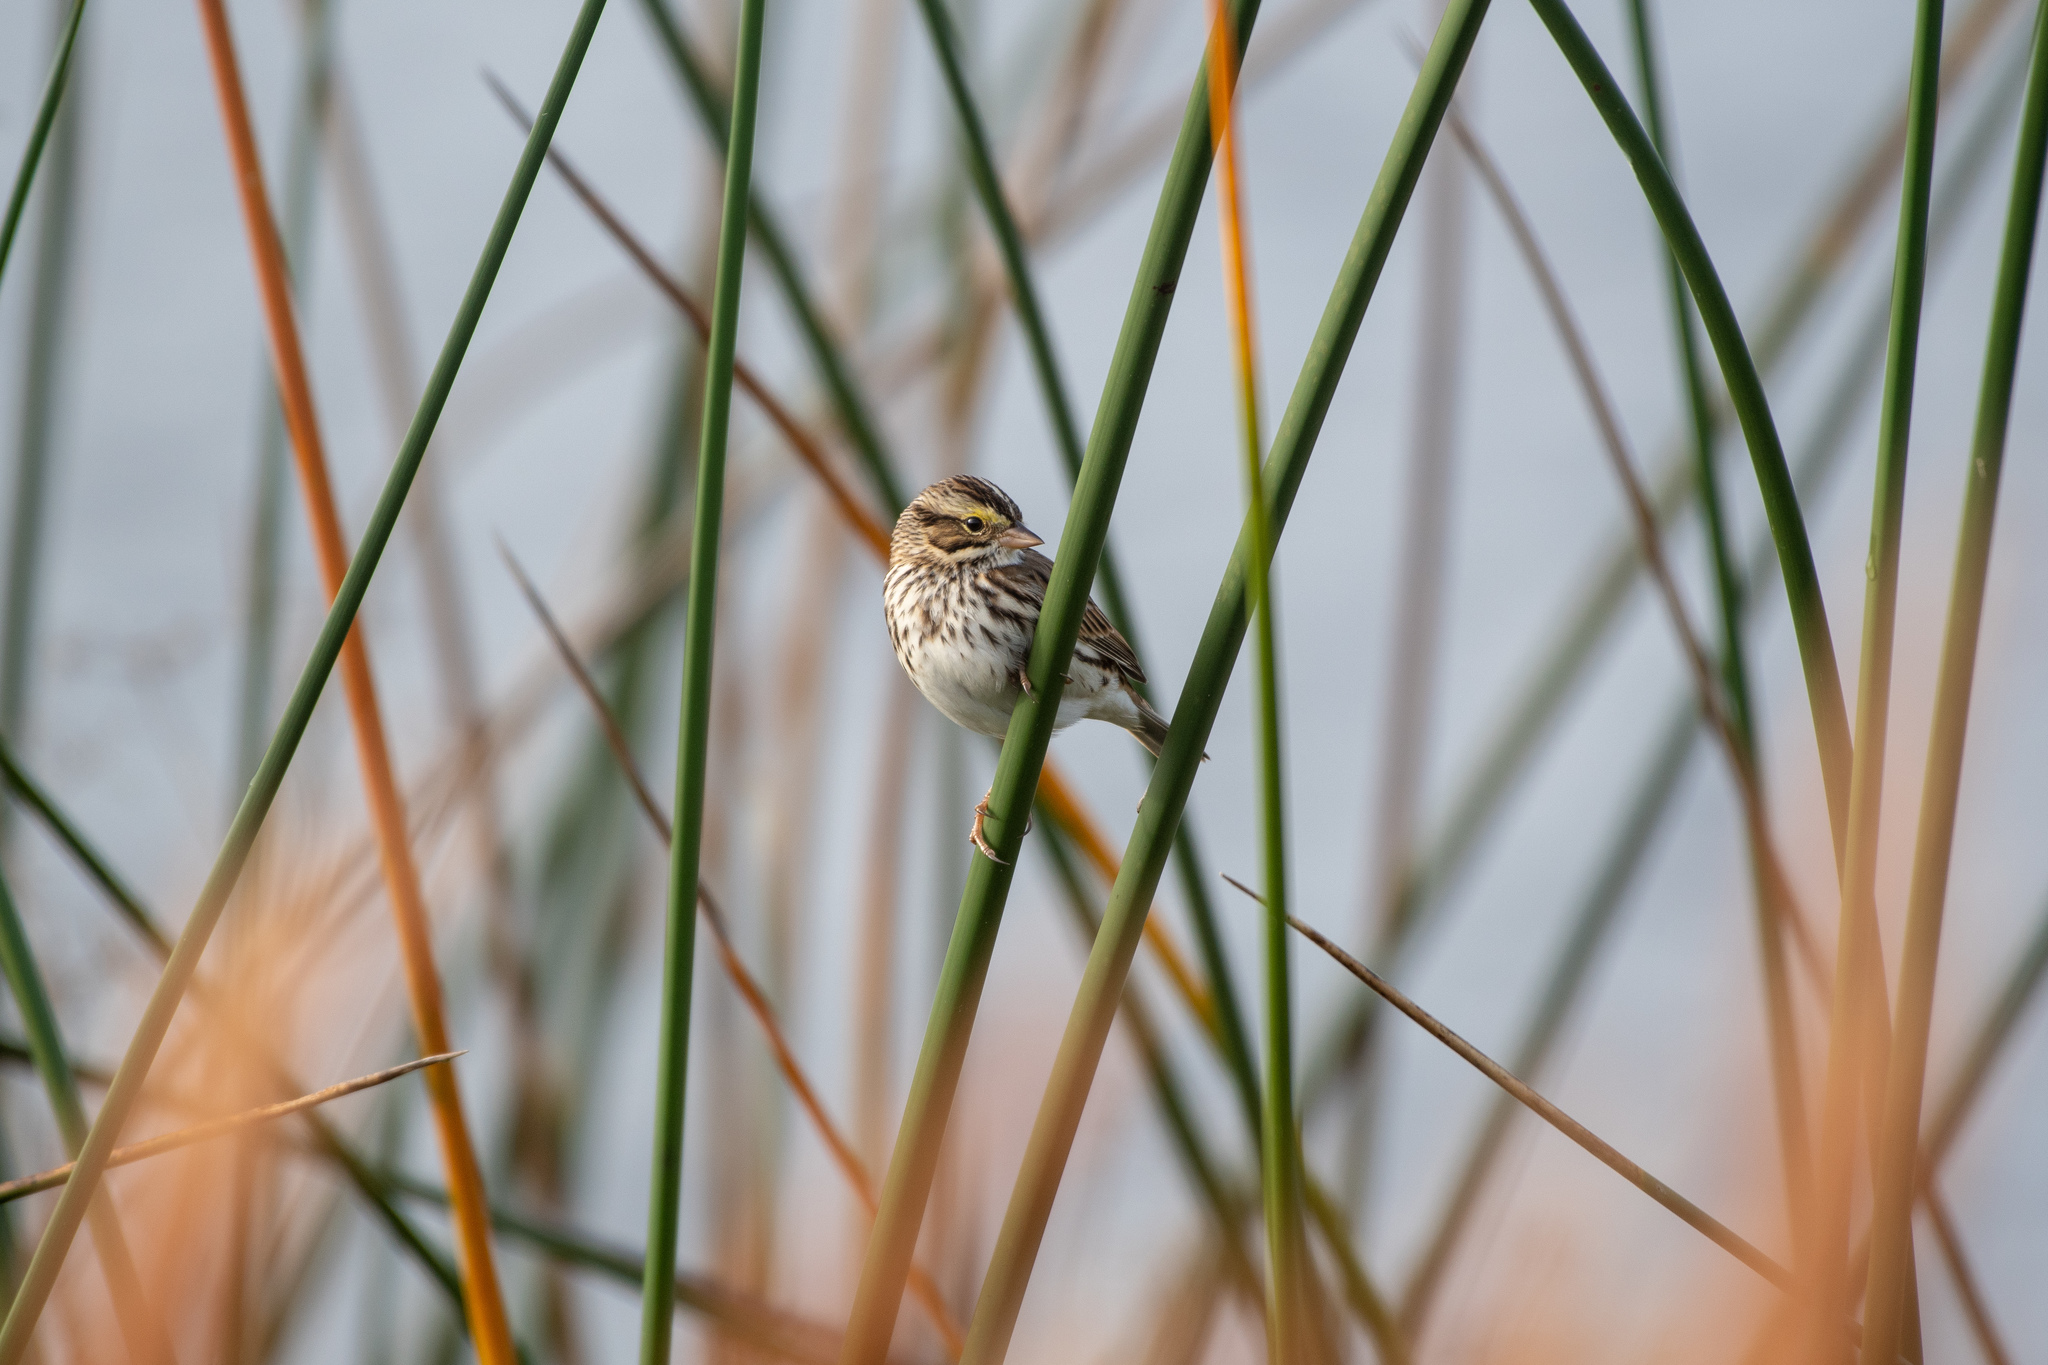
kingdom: Animalia
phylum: Chordata
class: Aves
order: Passeriformes
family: Passerellidae
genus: Passerculus
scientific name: Passerculus sandwichensis
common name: Savannah sparrow
